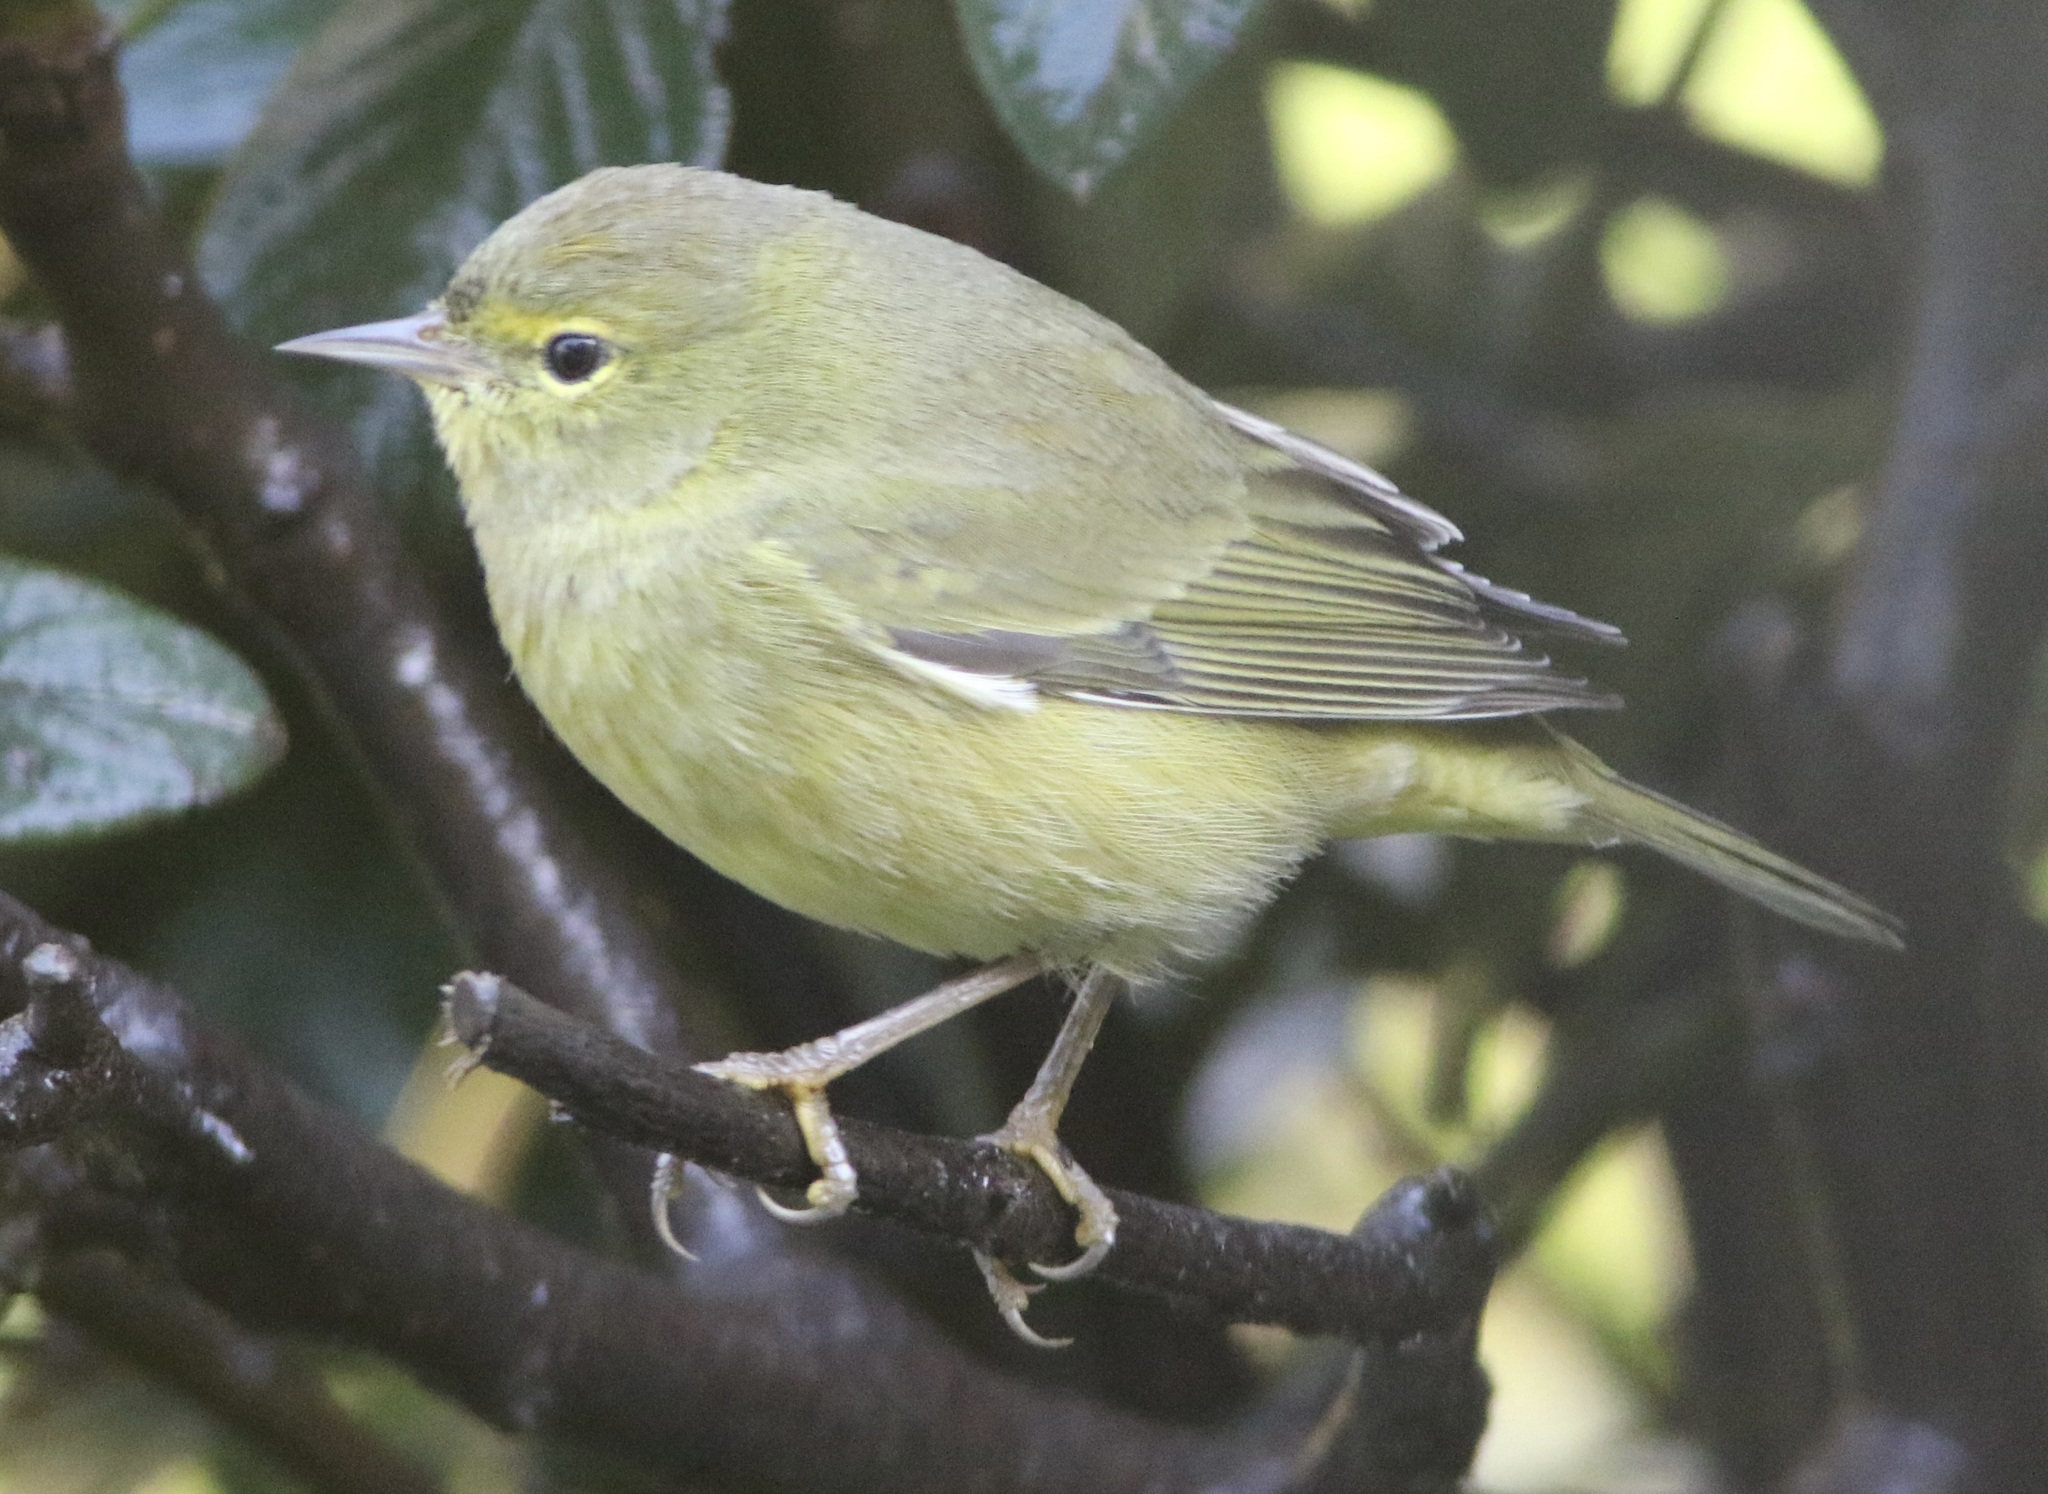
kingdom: Animalia
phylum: Chordata
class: Aves
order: Passeriformes
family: Parulidae
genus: Leiothlypis
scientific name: Leiothlypis celata
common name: Orange-crowned warbler
